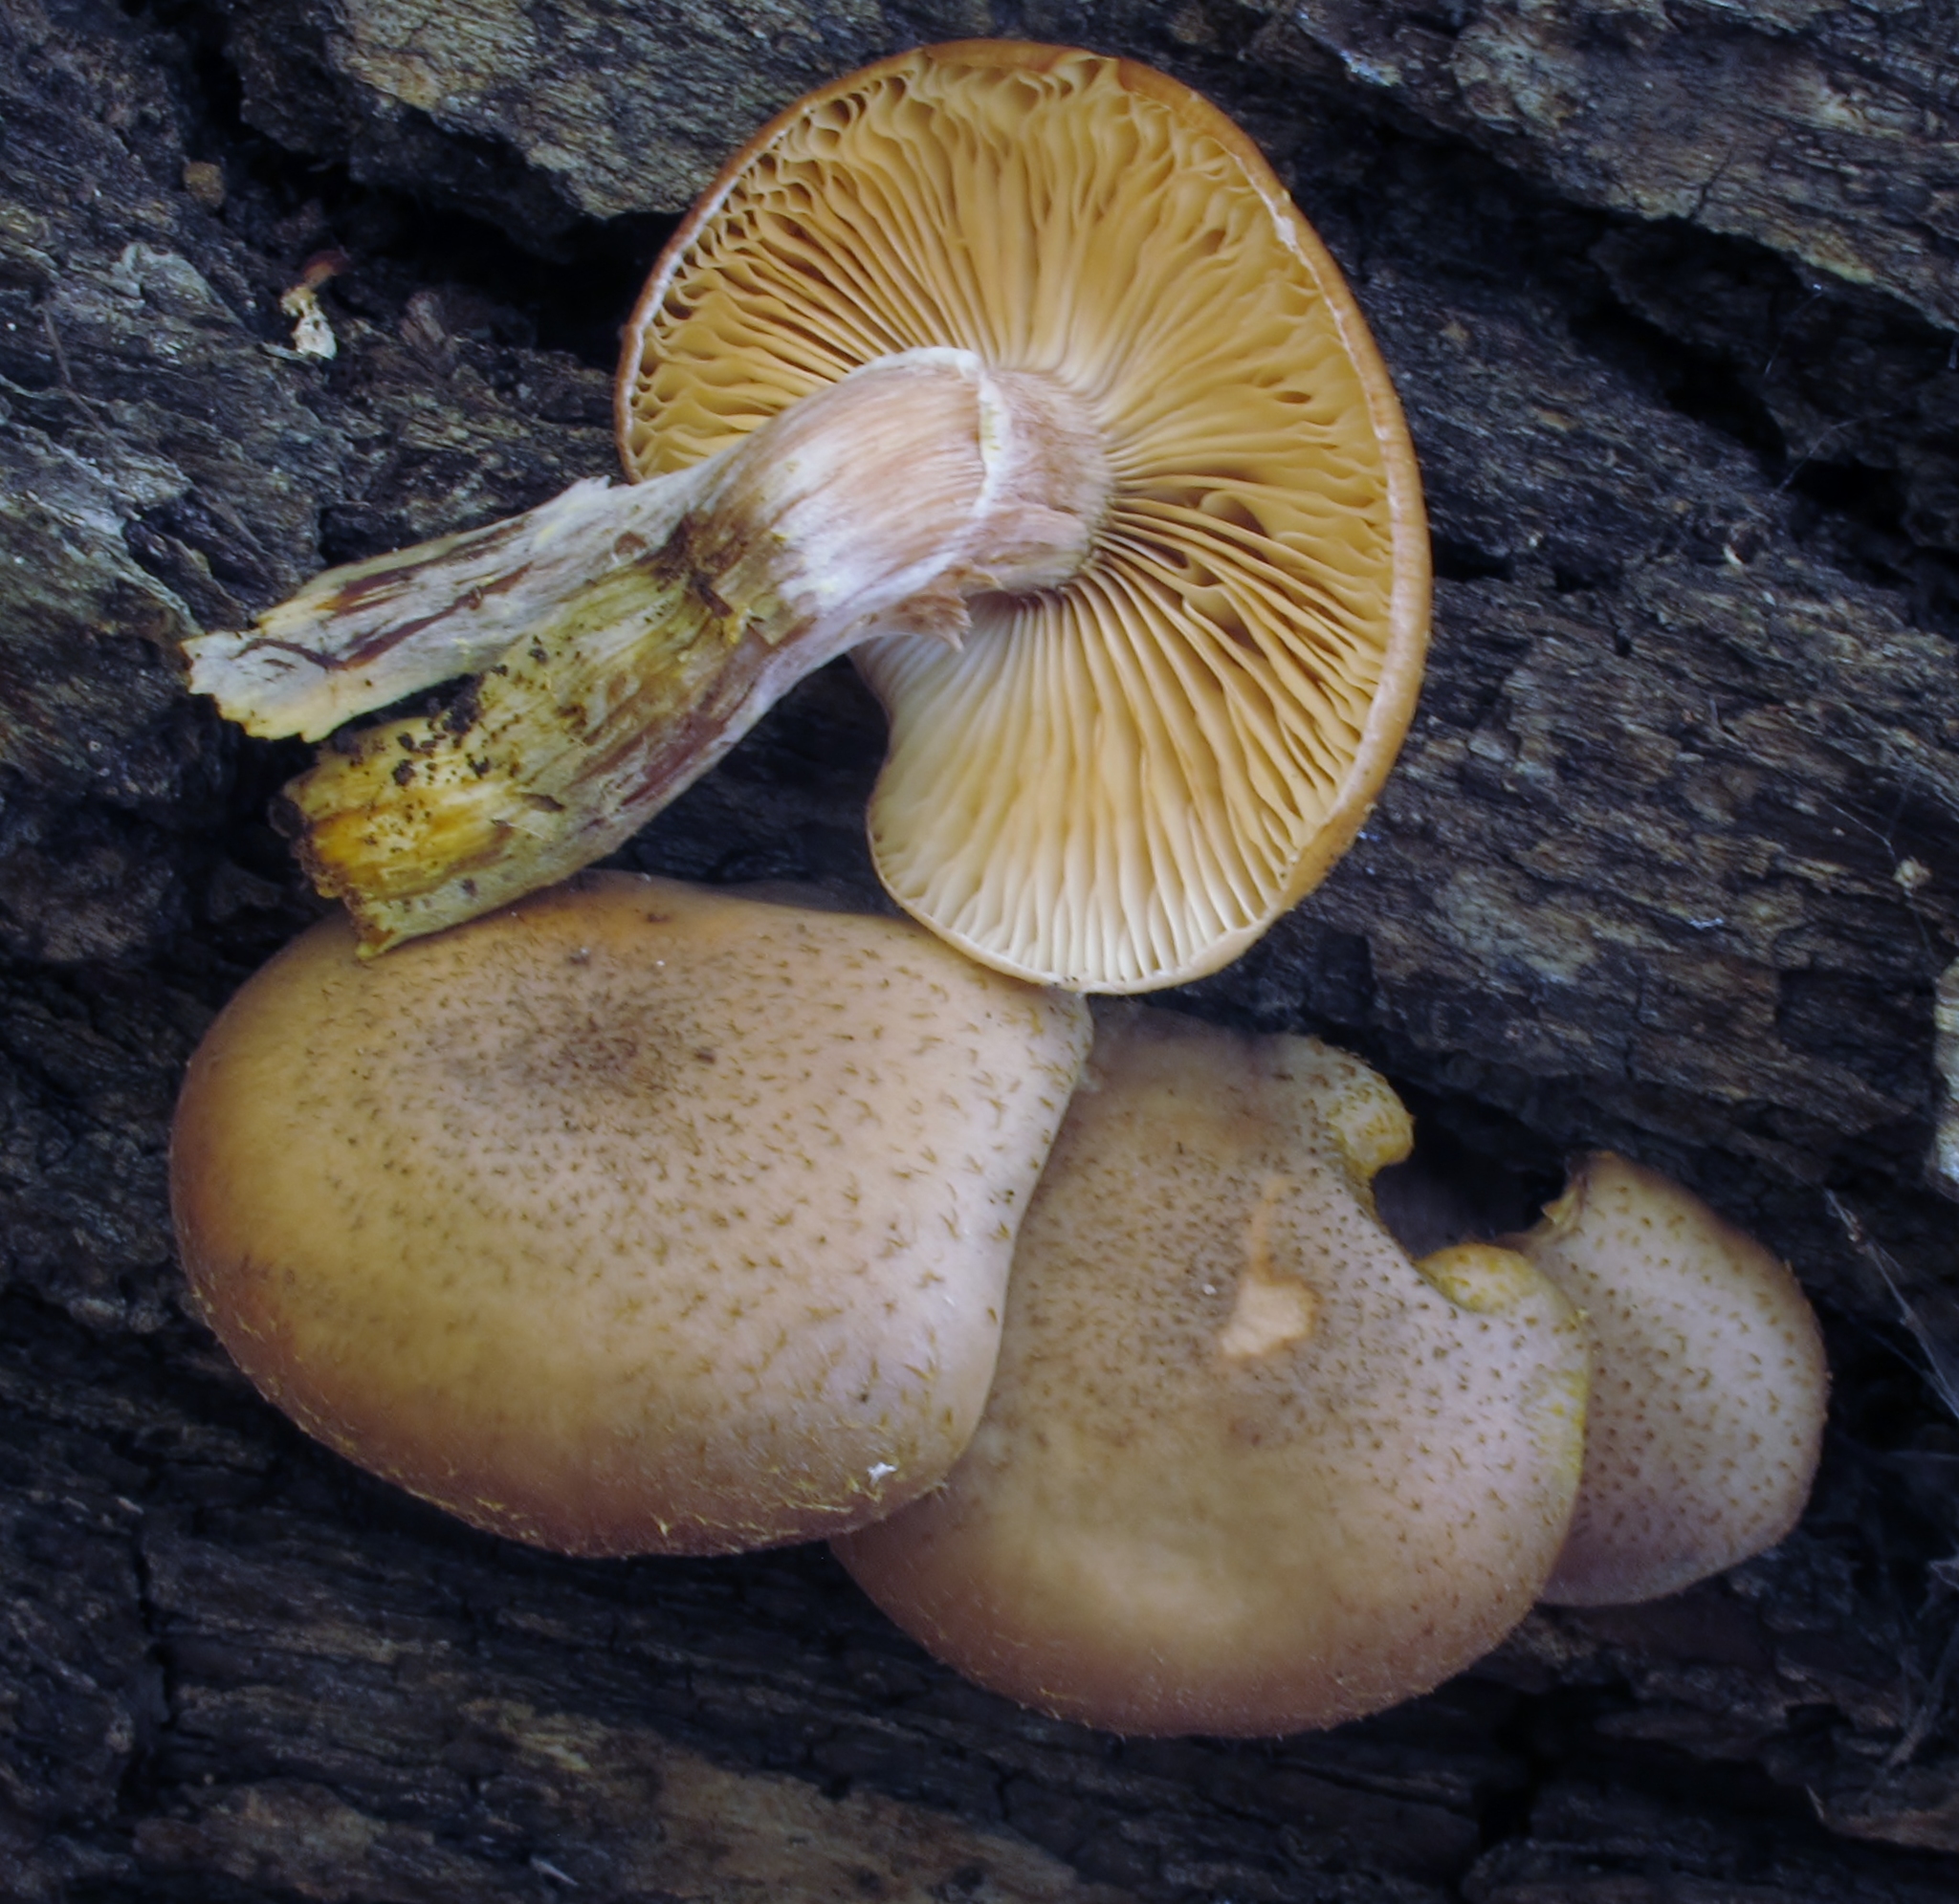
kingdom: Fungi
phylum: Basidiomycota
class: Agaricomycetes
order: Agaricales
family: Physalacriaceae
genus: Armillaria
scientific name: Armillaria ostoyae
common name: Dark honey fungus
